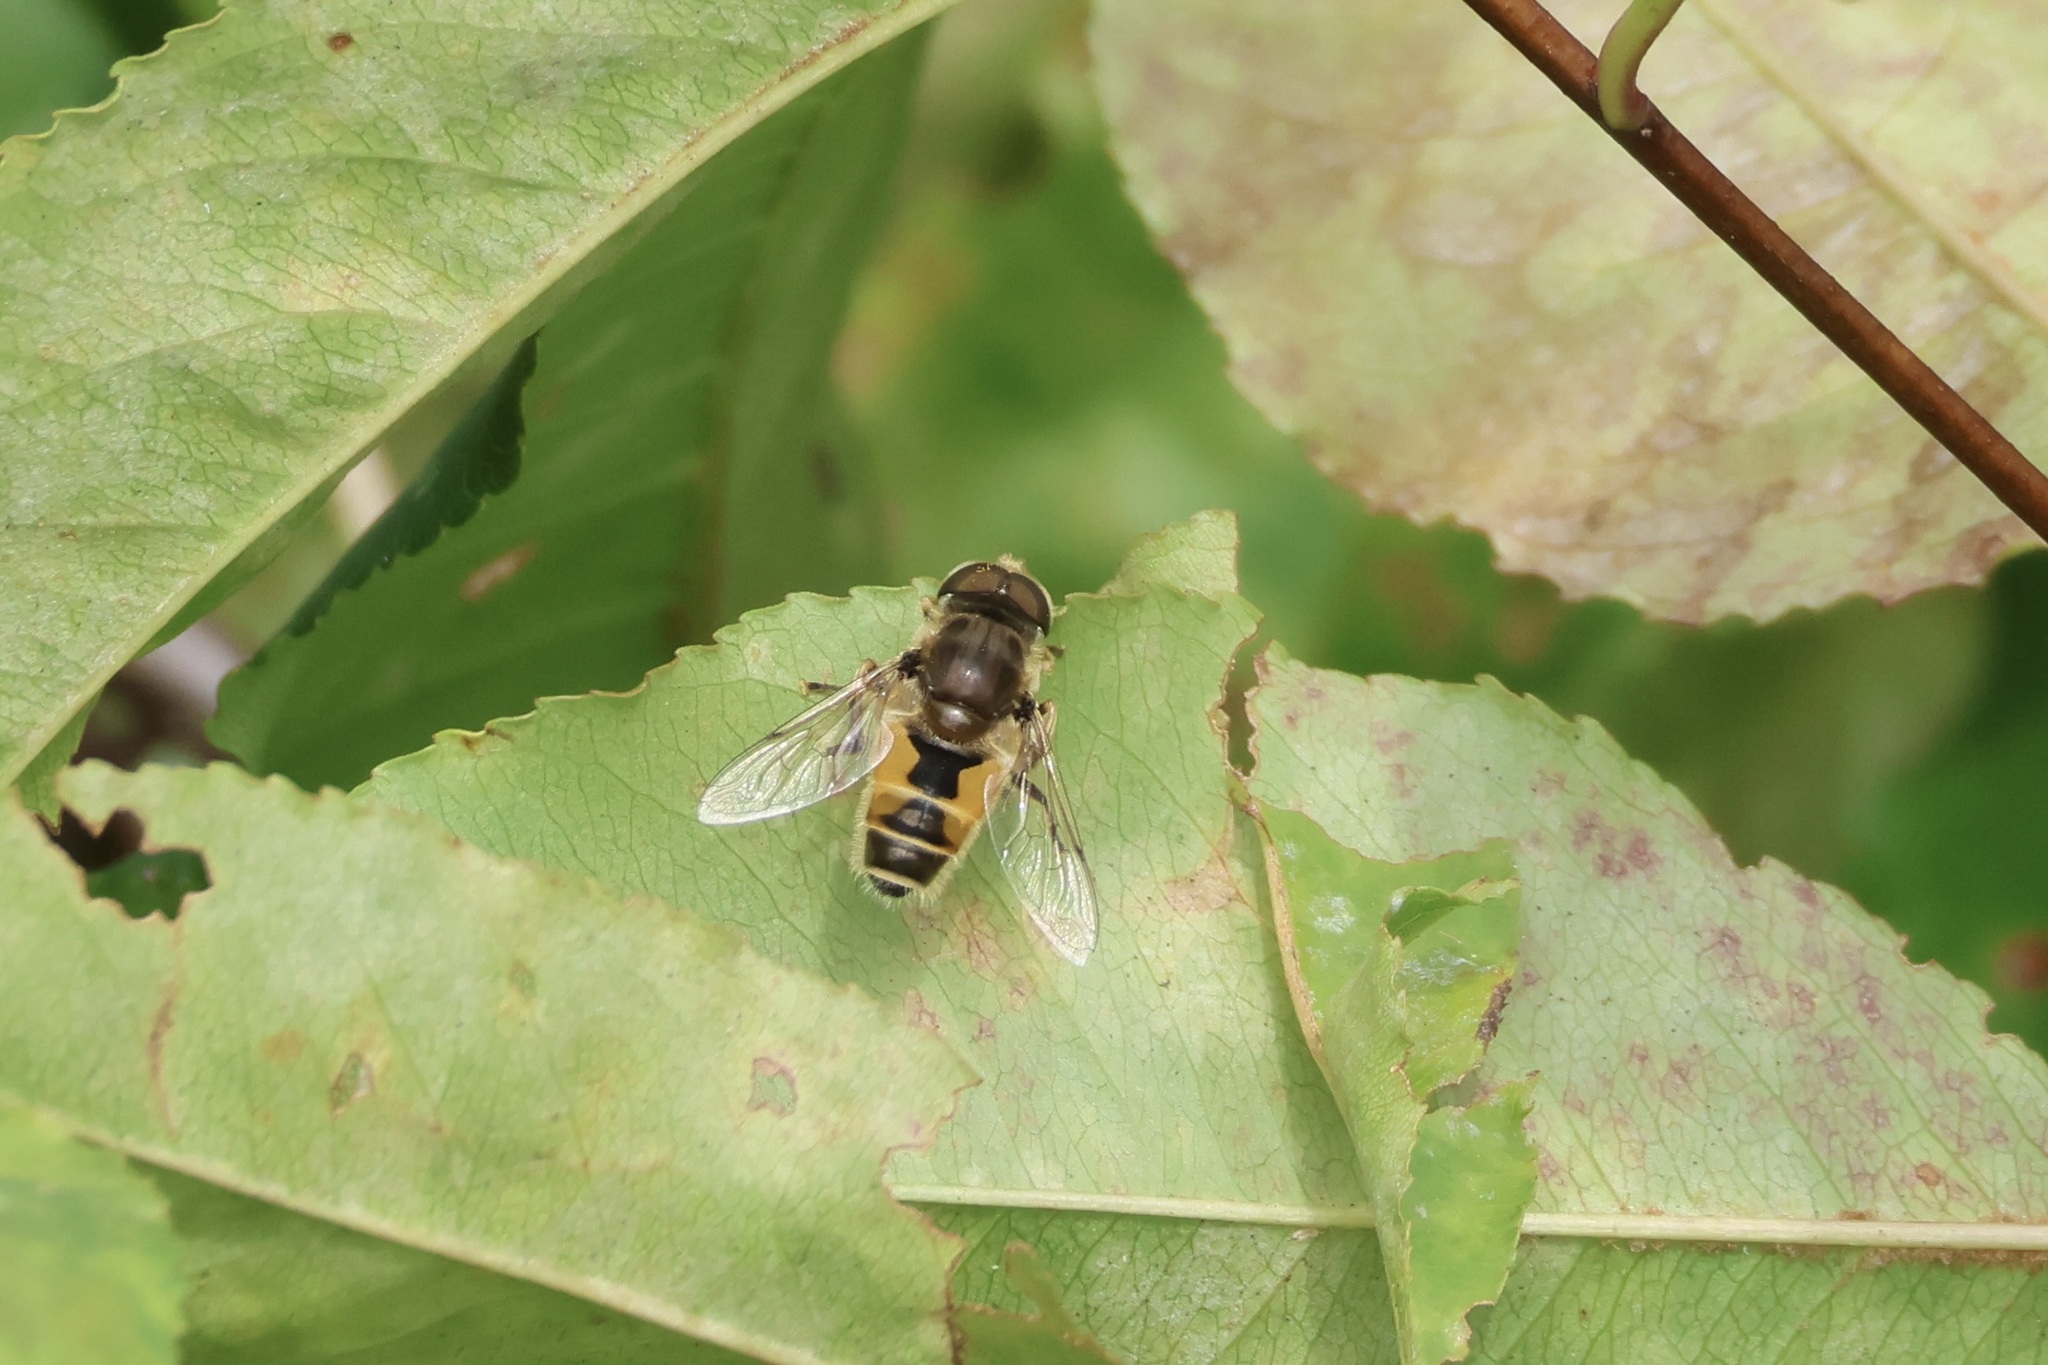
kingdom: Animalia
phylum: Arthropoda
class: Insecta
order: Diptera
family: Syrphidae
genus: Eristalis
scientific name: Eristalis arbustorum
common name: Hover fly
